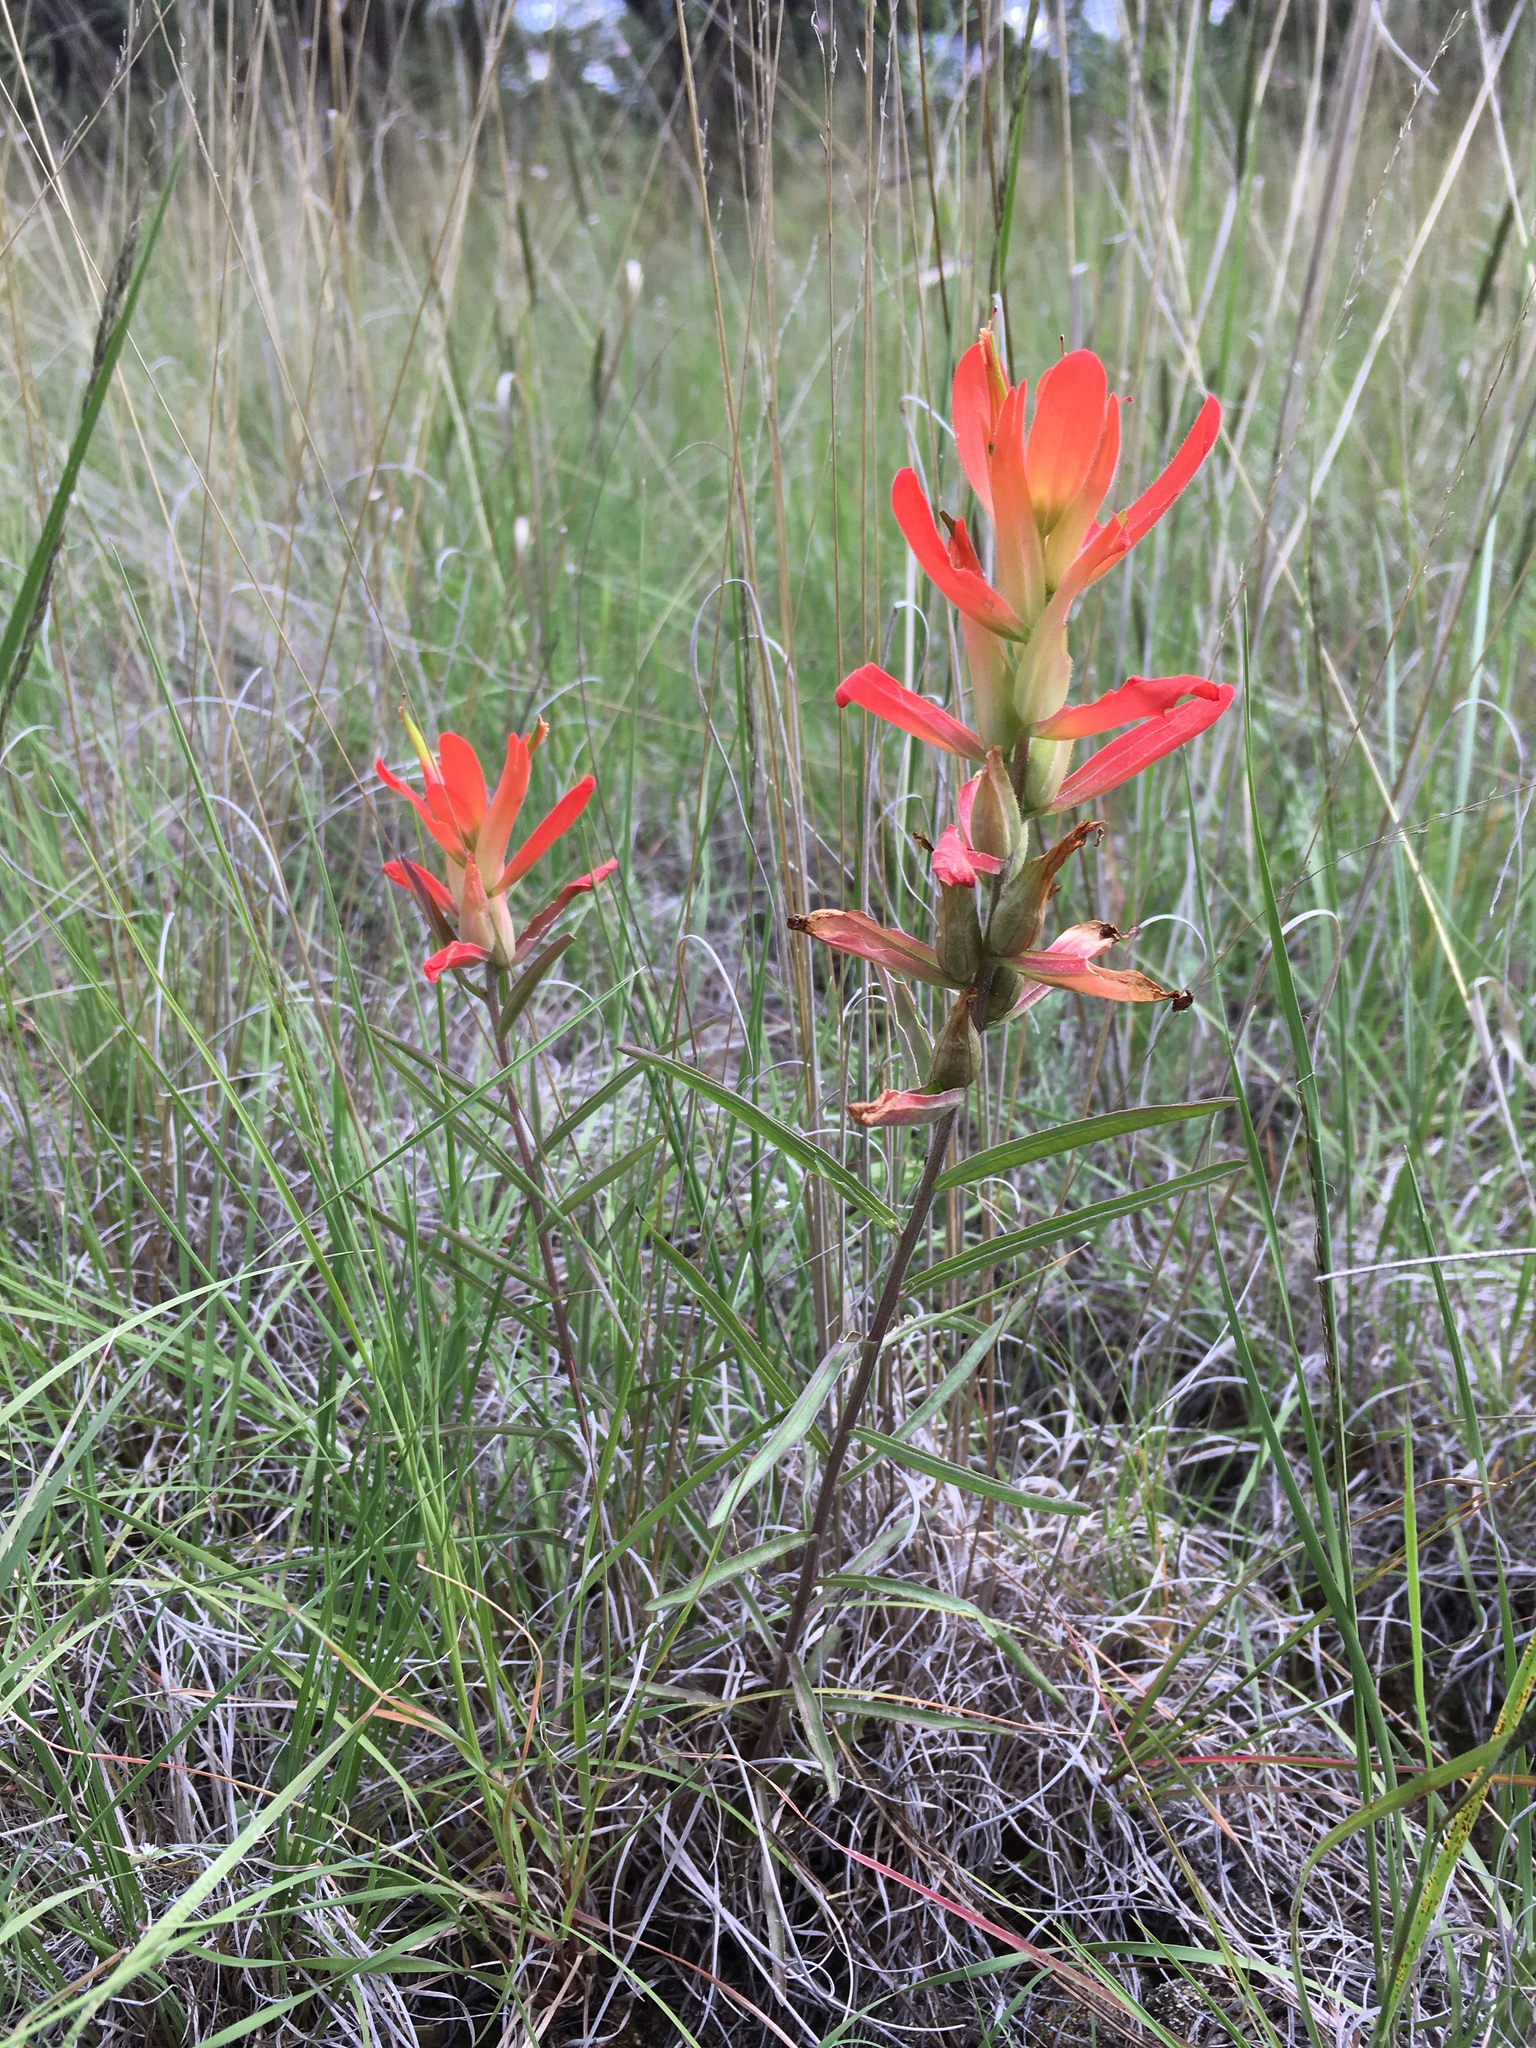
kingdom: Plantae
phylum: Tracheophyta
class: Magnoliopsida
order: Lamiales
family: Orobanchaceae
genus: Castilleja
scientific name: Castilleja integra
